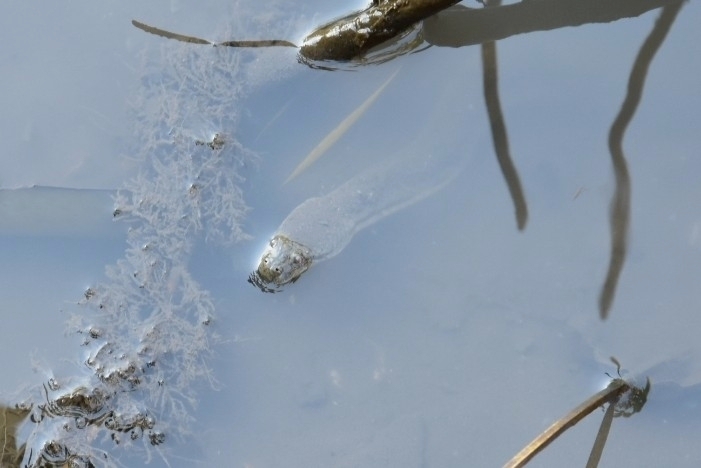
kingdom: Animalia
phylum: Chordata
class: Squamata
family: Homalopsidae
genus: Cerberus
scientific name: Cerberus schneiderii
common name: Southeast asian bockadam
